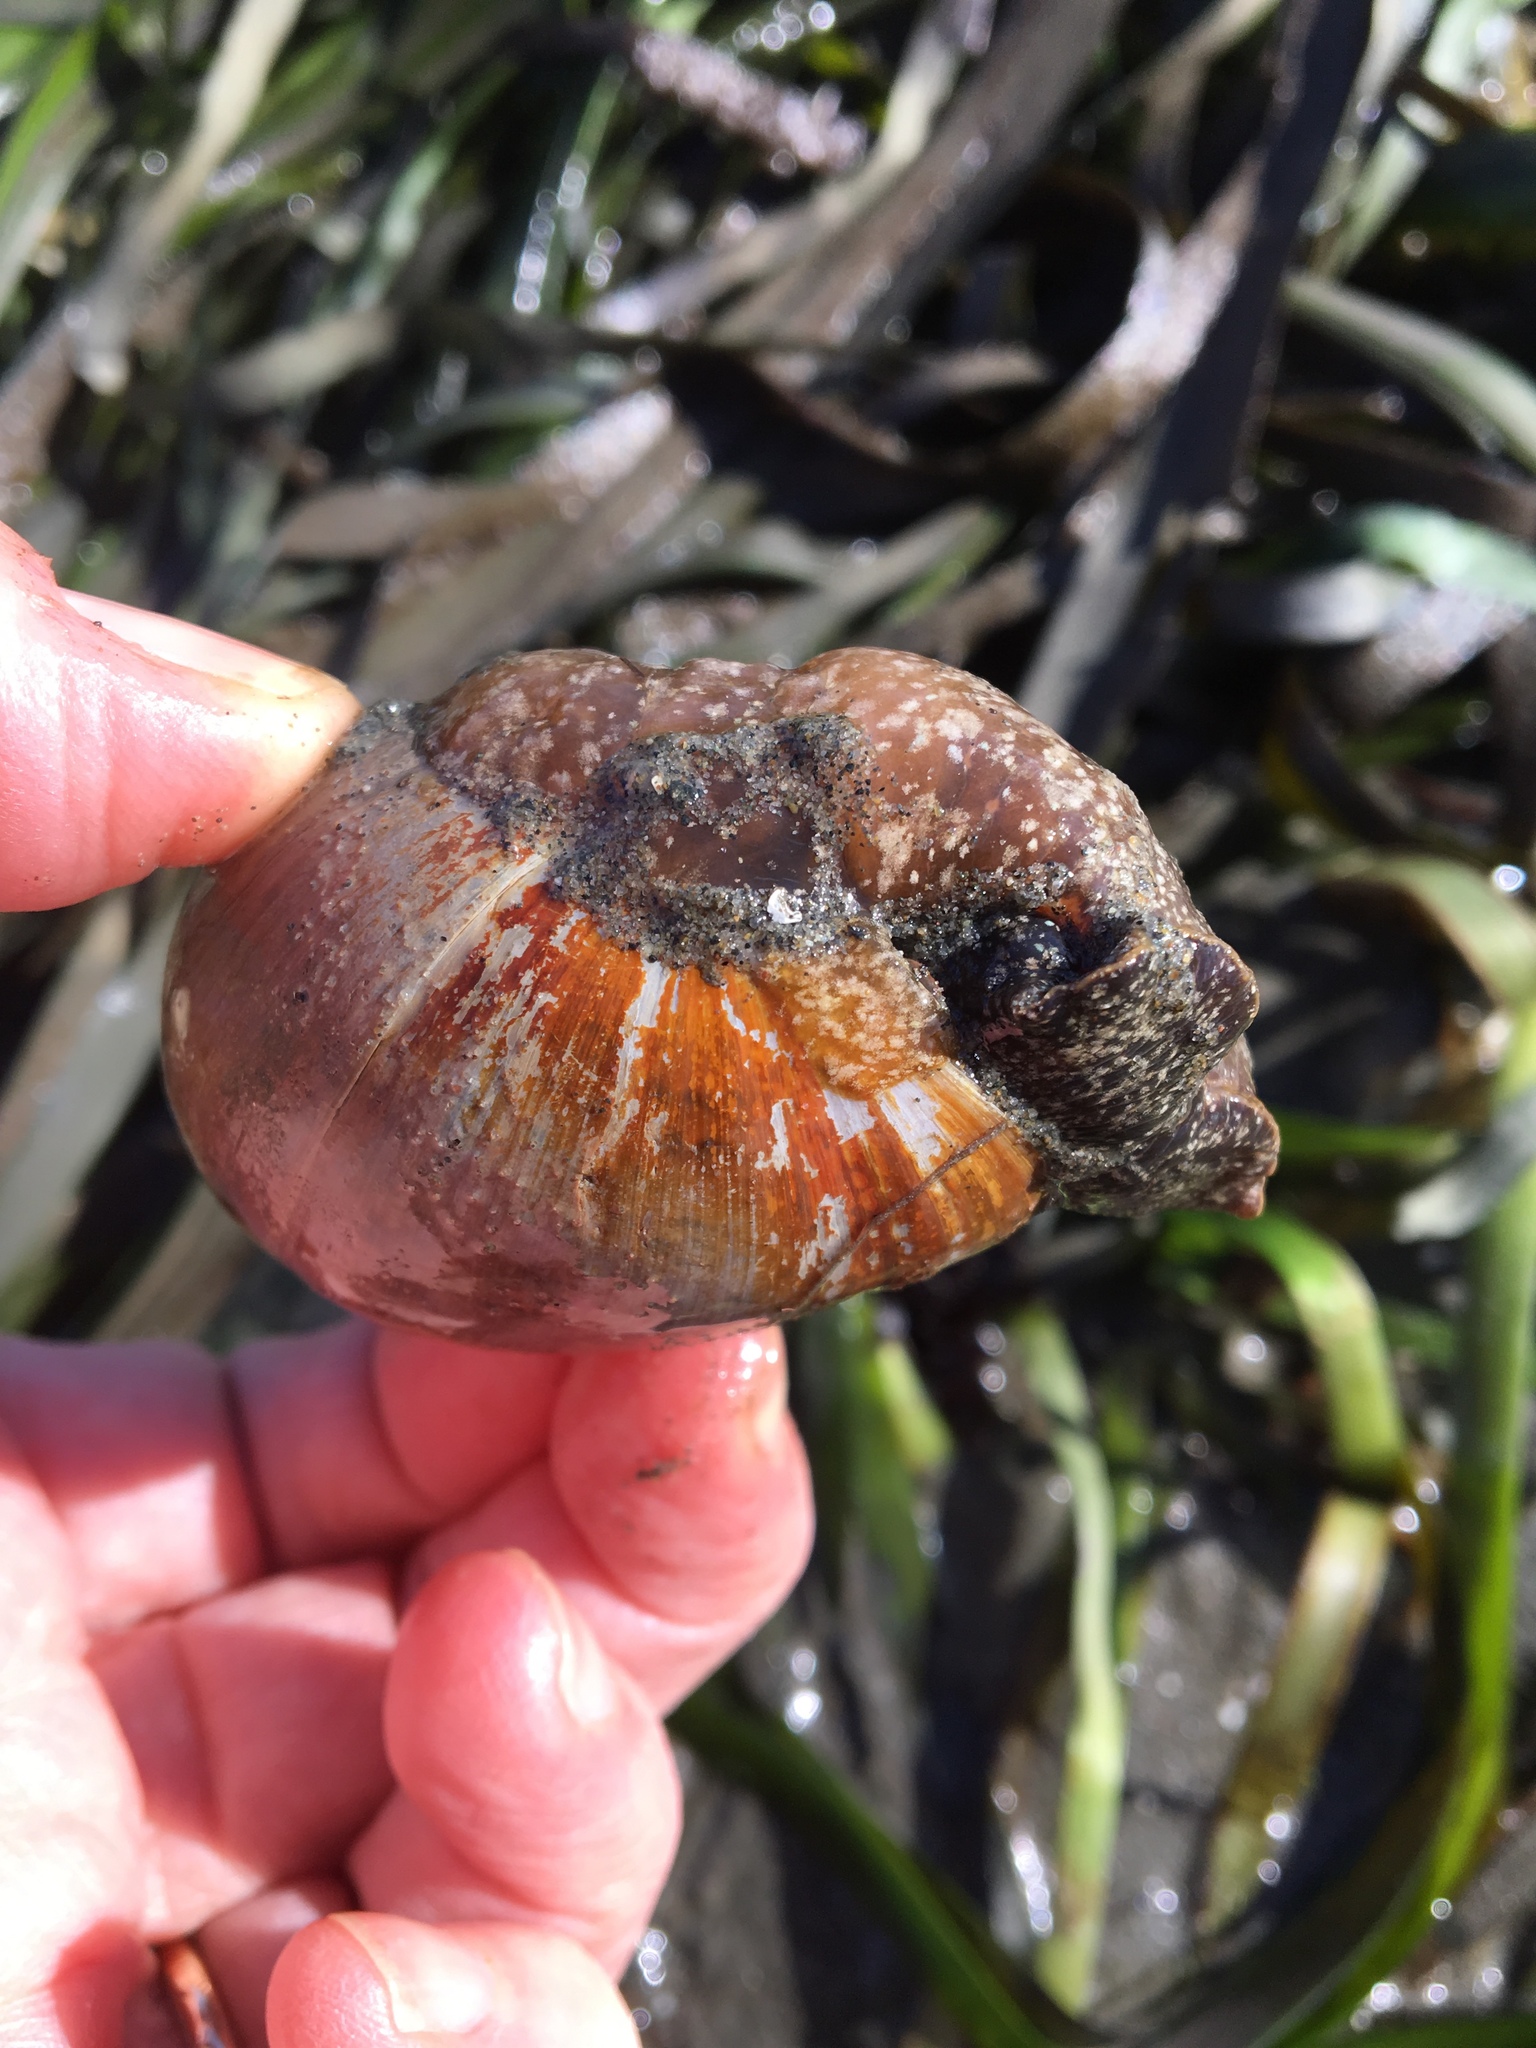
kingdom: Animalia
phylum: Mollusca
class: Gastropoda
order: Cephalaspidea
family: Bullidae
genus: Bulla
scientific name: Bulla gouldiana
